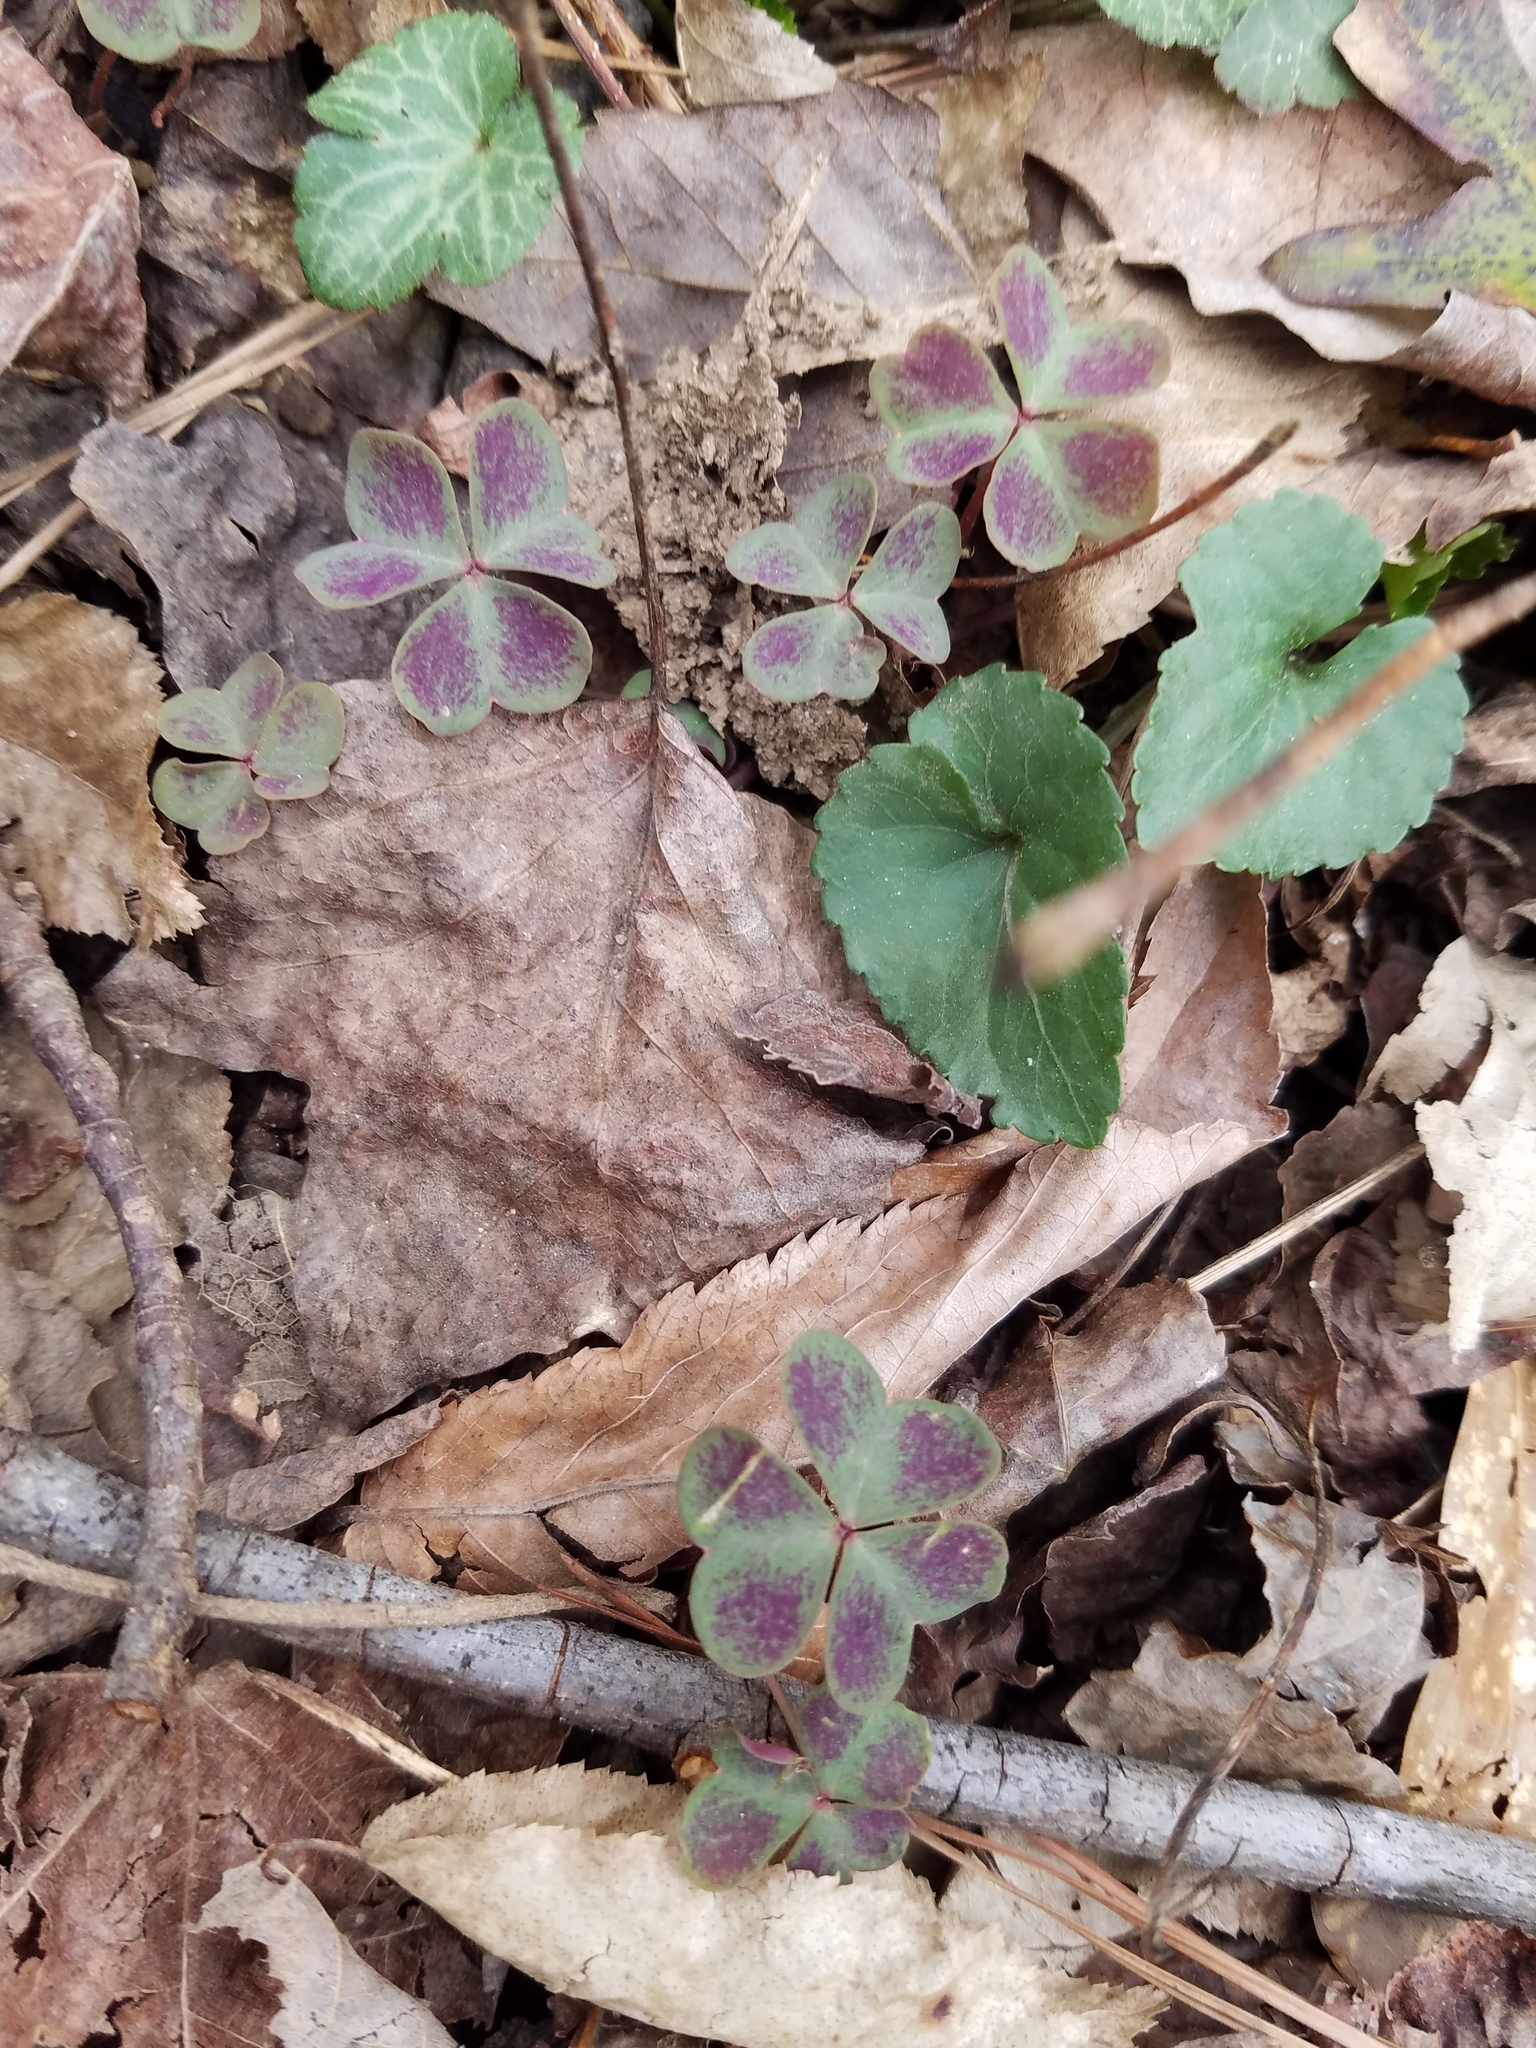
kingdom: Plantae
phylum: Tracheophyta
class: Magnoliopsida
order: Oxalidales
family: Oxalidaceae
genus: Oxalis
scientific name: Oxalis violacea
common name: Violet wood-sorrel
